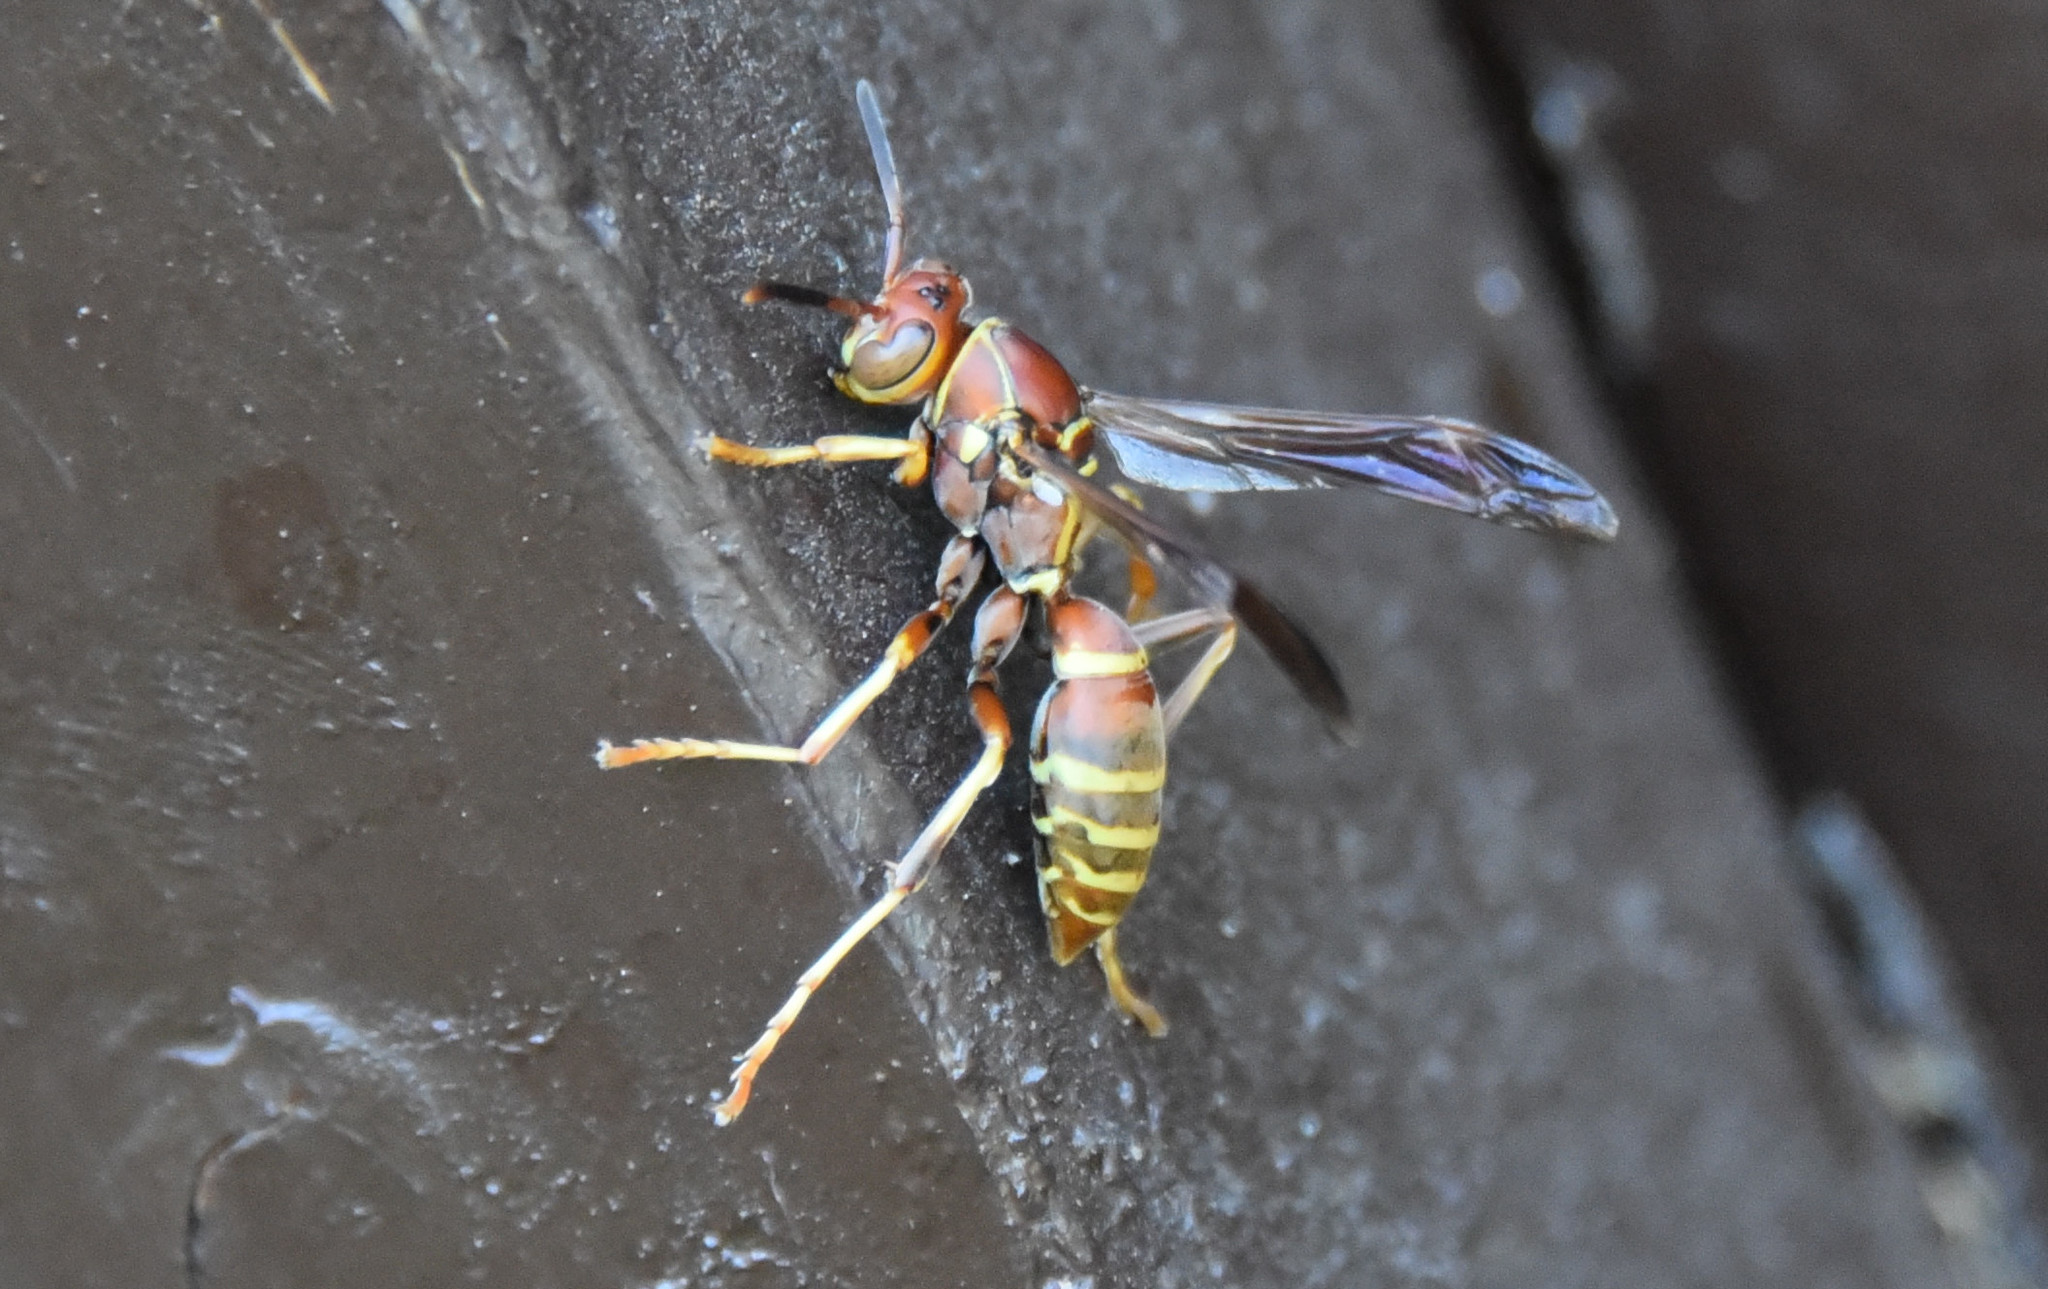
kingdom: Animalia
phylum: Arthropoda
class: Insecta
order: Hymenoptera
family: Eumenidae
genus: Polistes
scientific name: Polistes dorsalis
